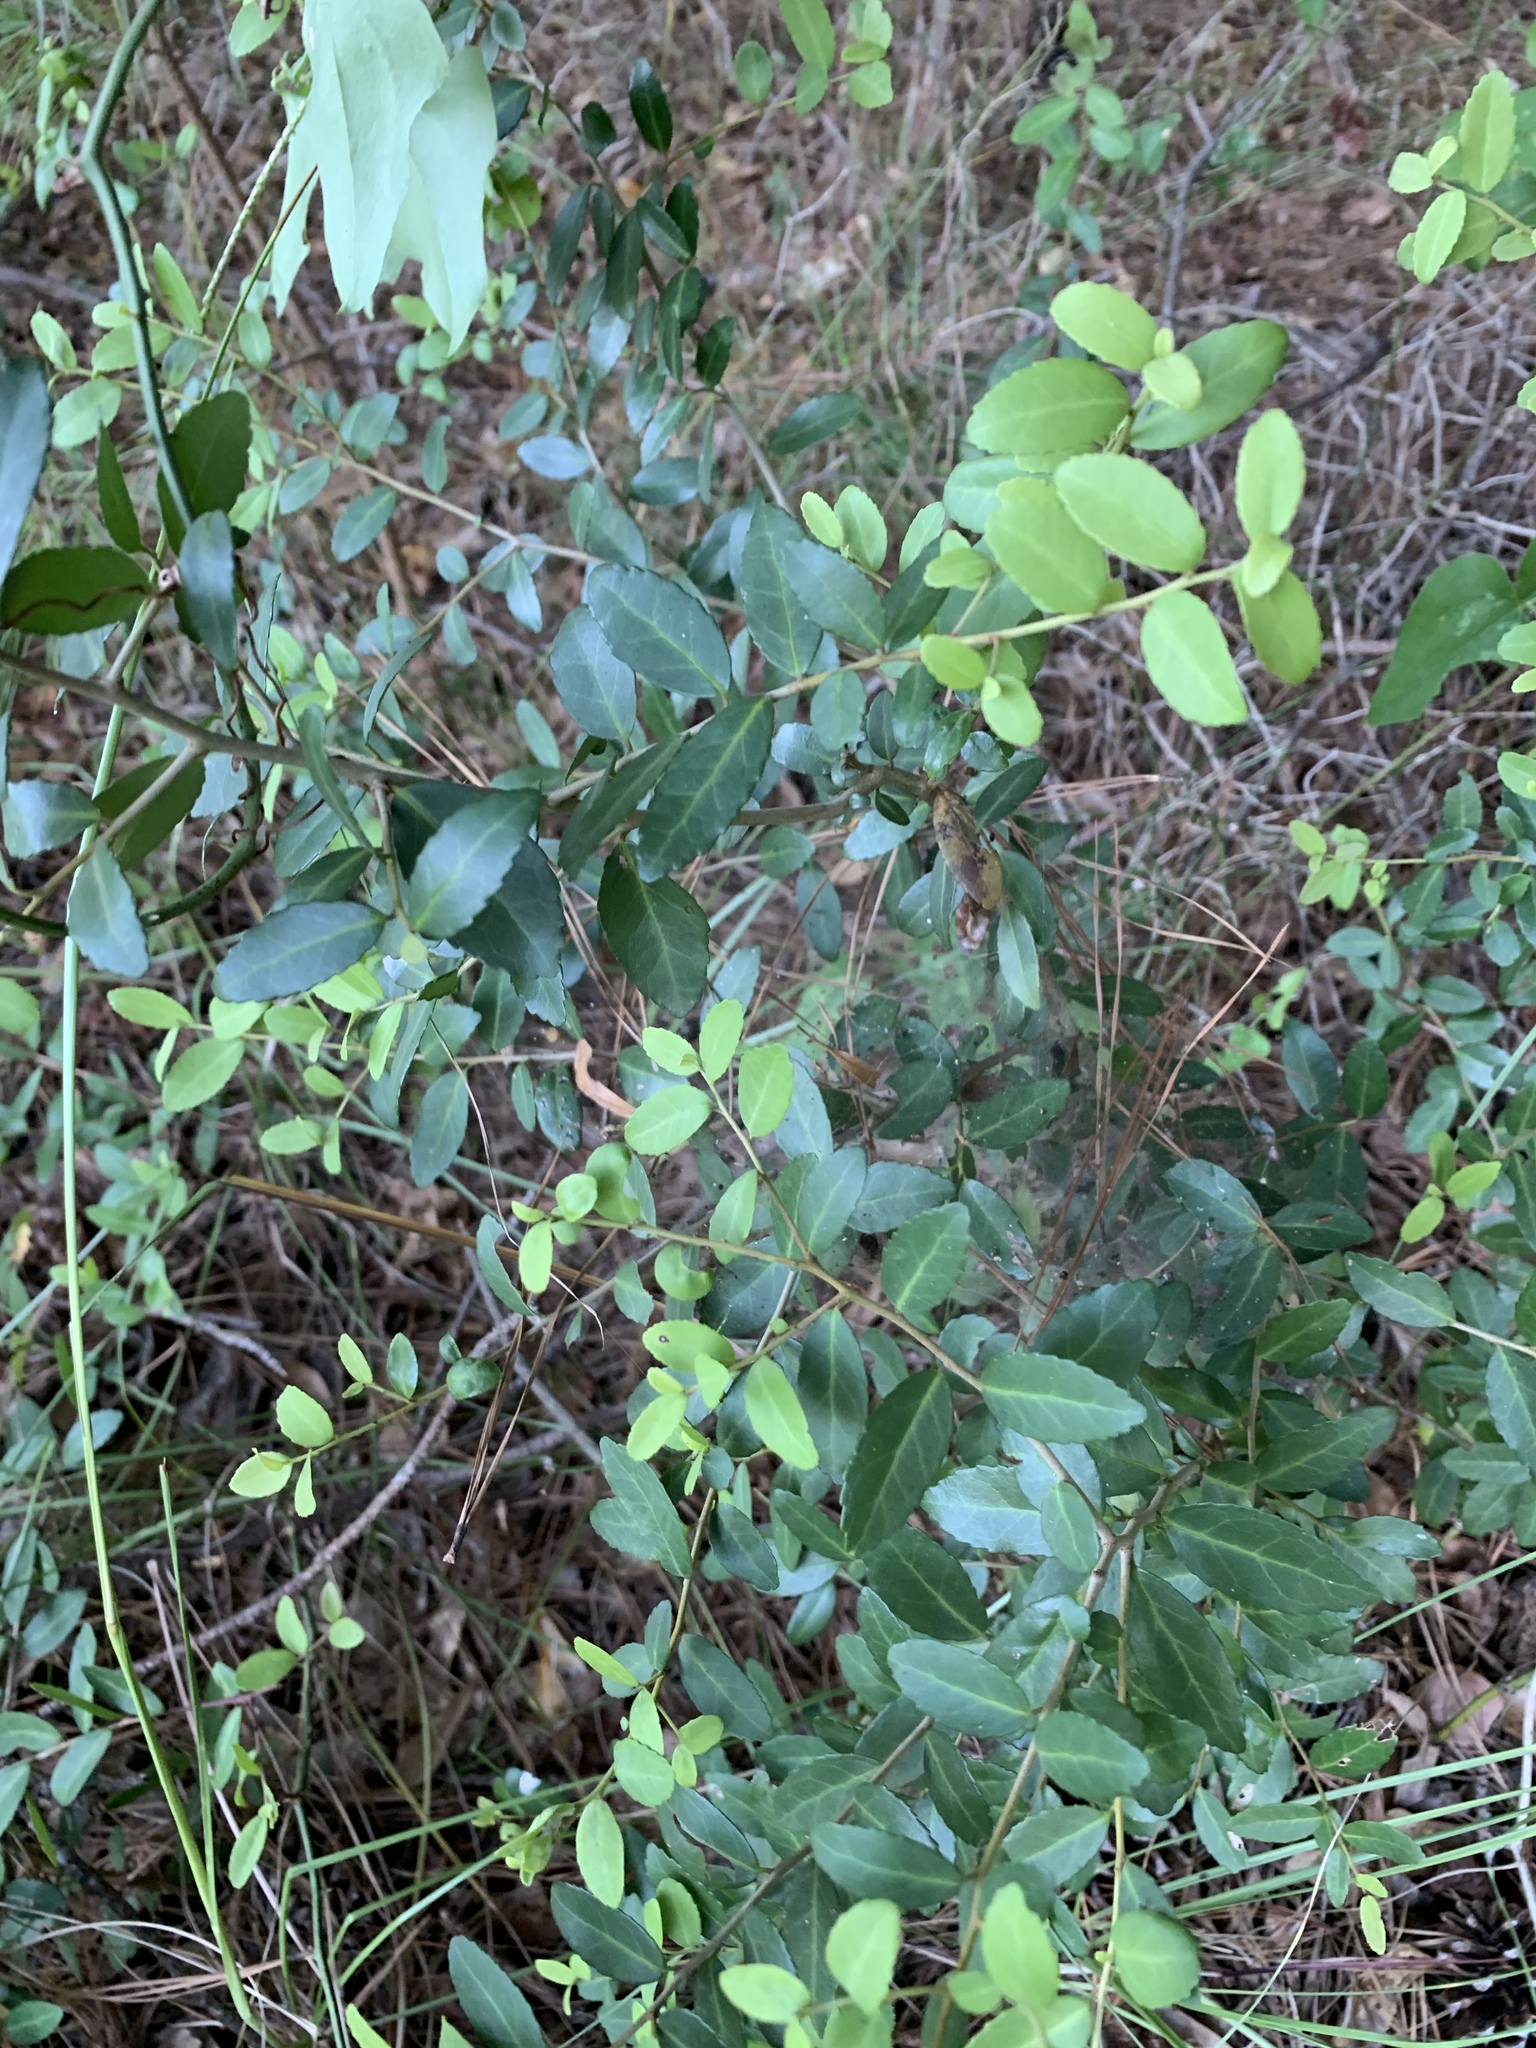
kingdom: Plantae
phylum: Tracheophyta
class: Magnoliopsida
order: Aquifoliales
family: Aquifoliaceae
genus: Ilex
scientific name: Ilex vomitoria
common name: Yaupon holly
